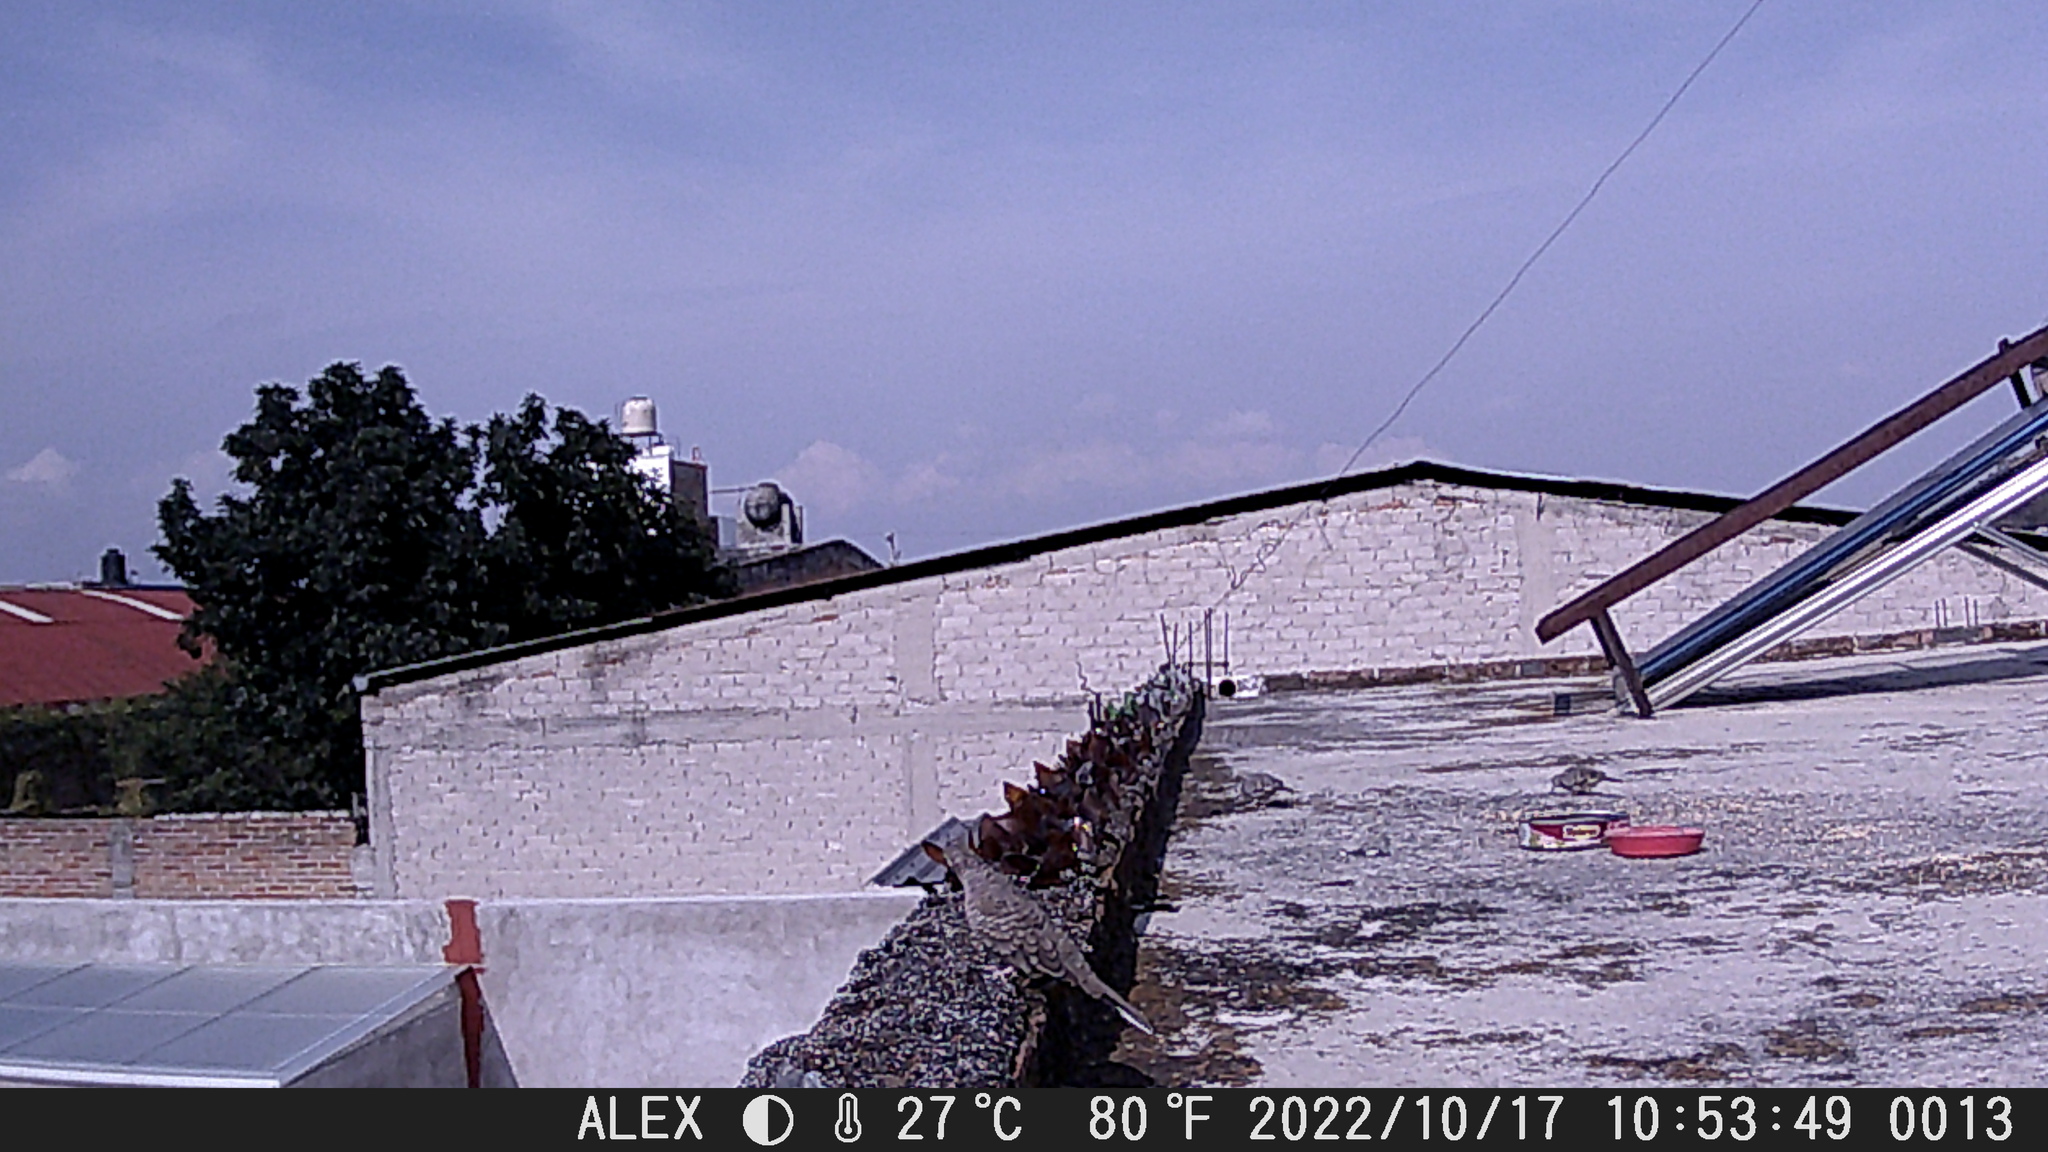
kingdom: Animalia
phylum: Chordata
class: Aves
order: Columbiformes
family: Columbidae
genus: Columbina
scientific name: Columbina inca
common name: Inca dove
